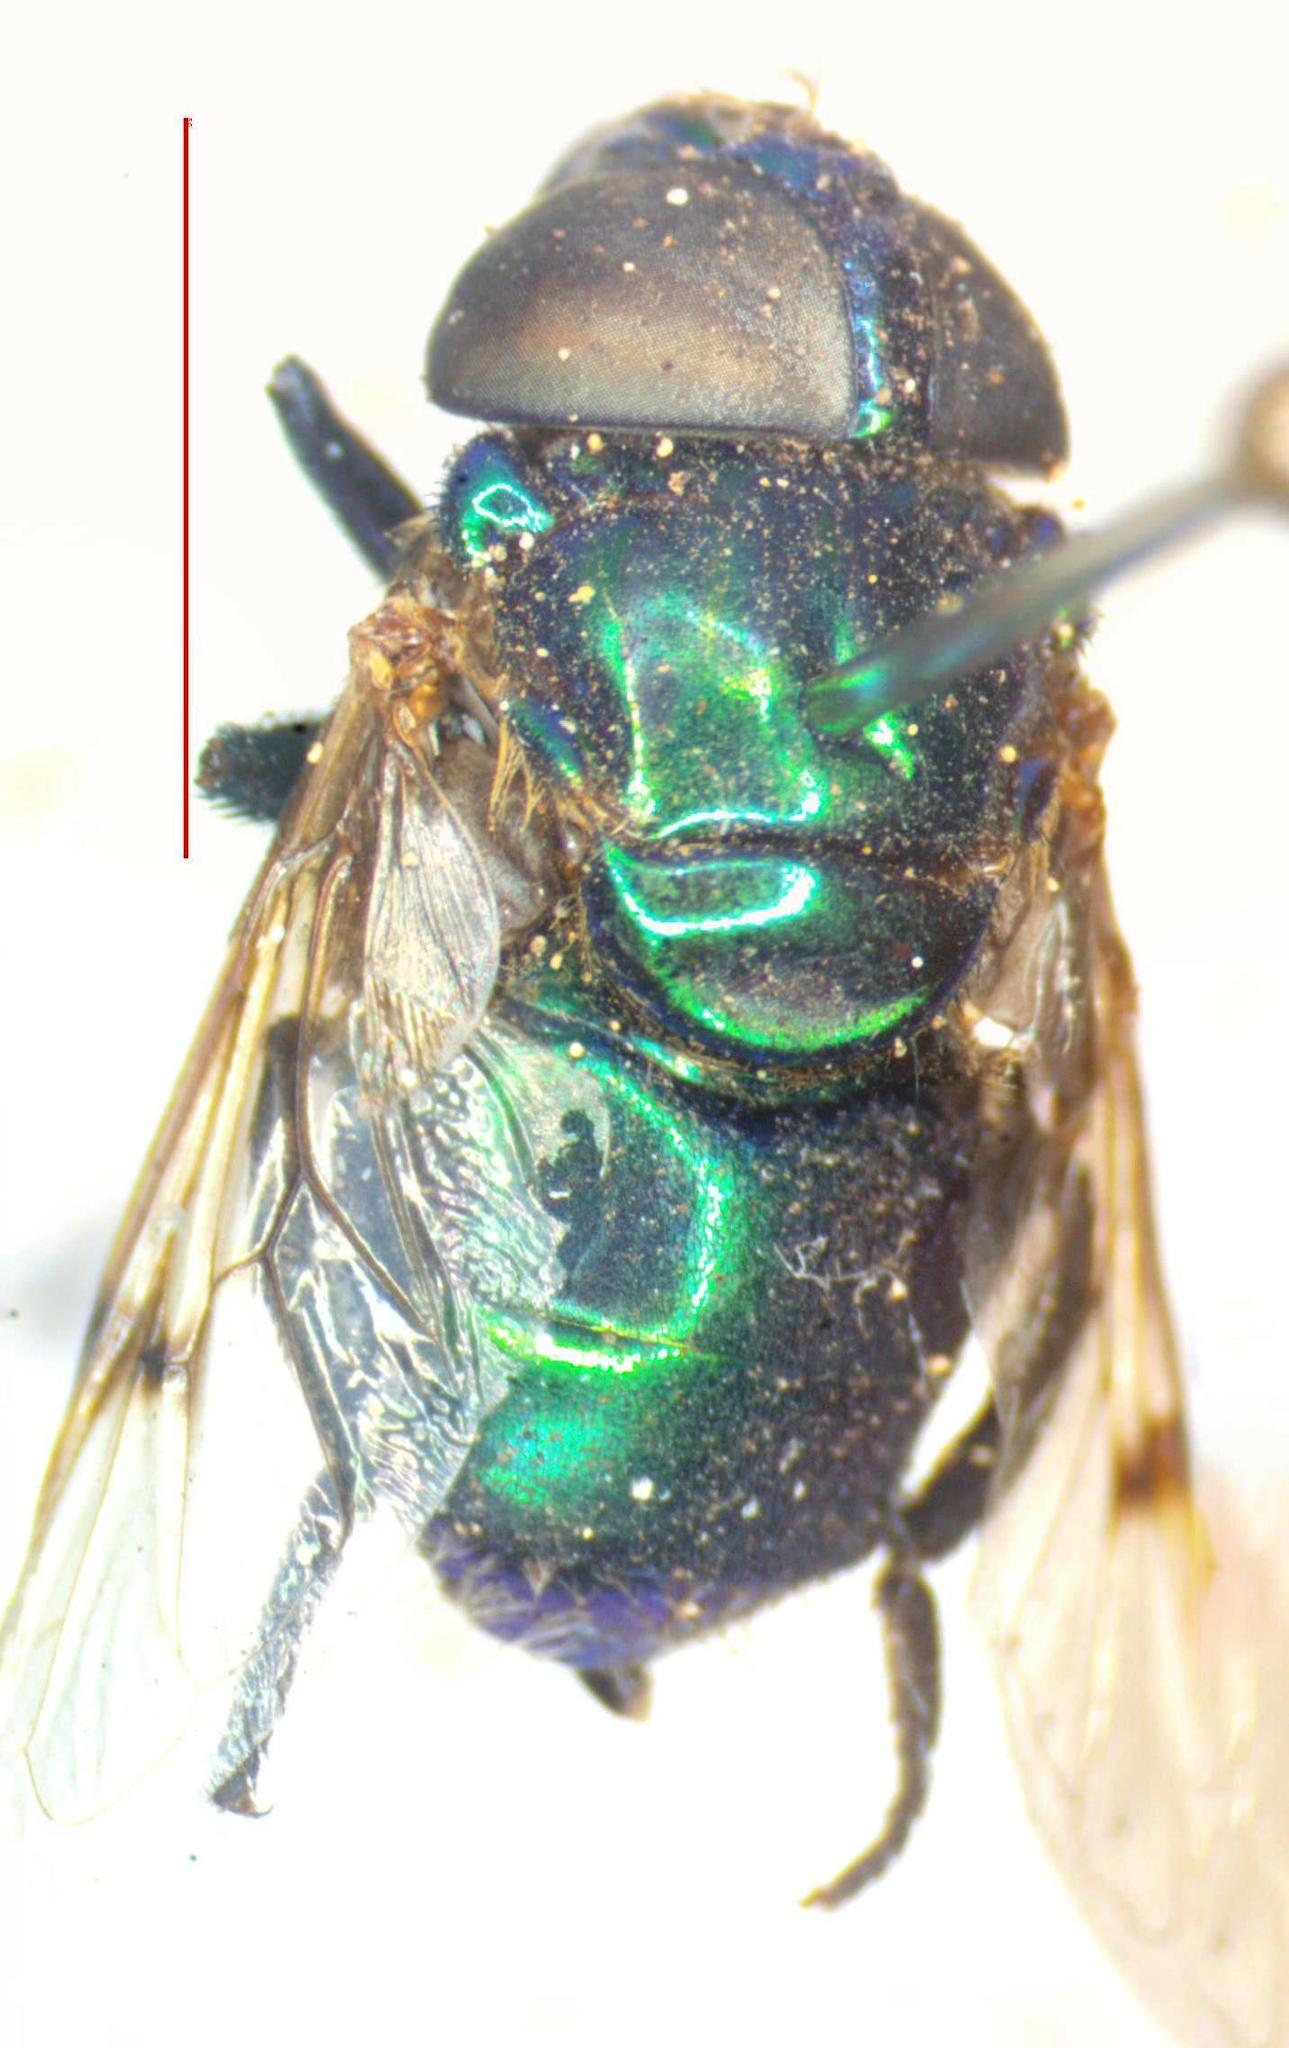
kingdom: Animalia
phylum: Arthropoda
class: Insecta
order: Diptera
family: Syrphidae
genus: Ornidia
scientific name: Ornidia obesa
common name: Syrphid fly
